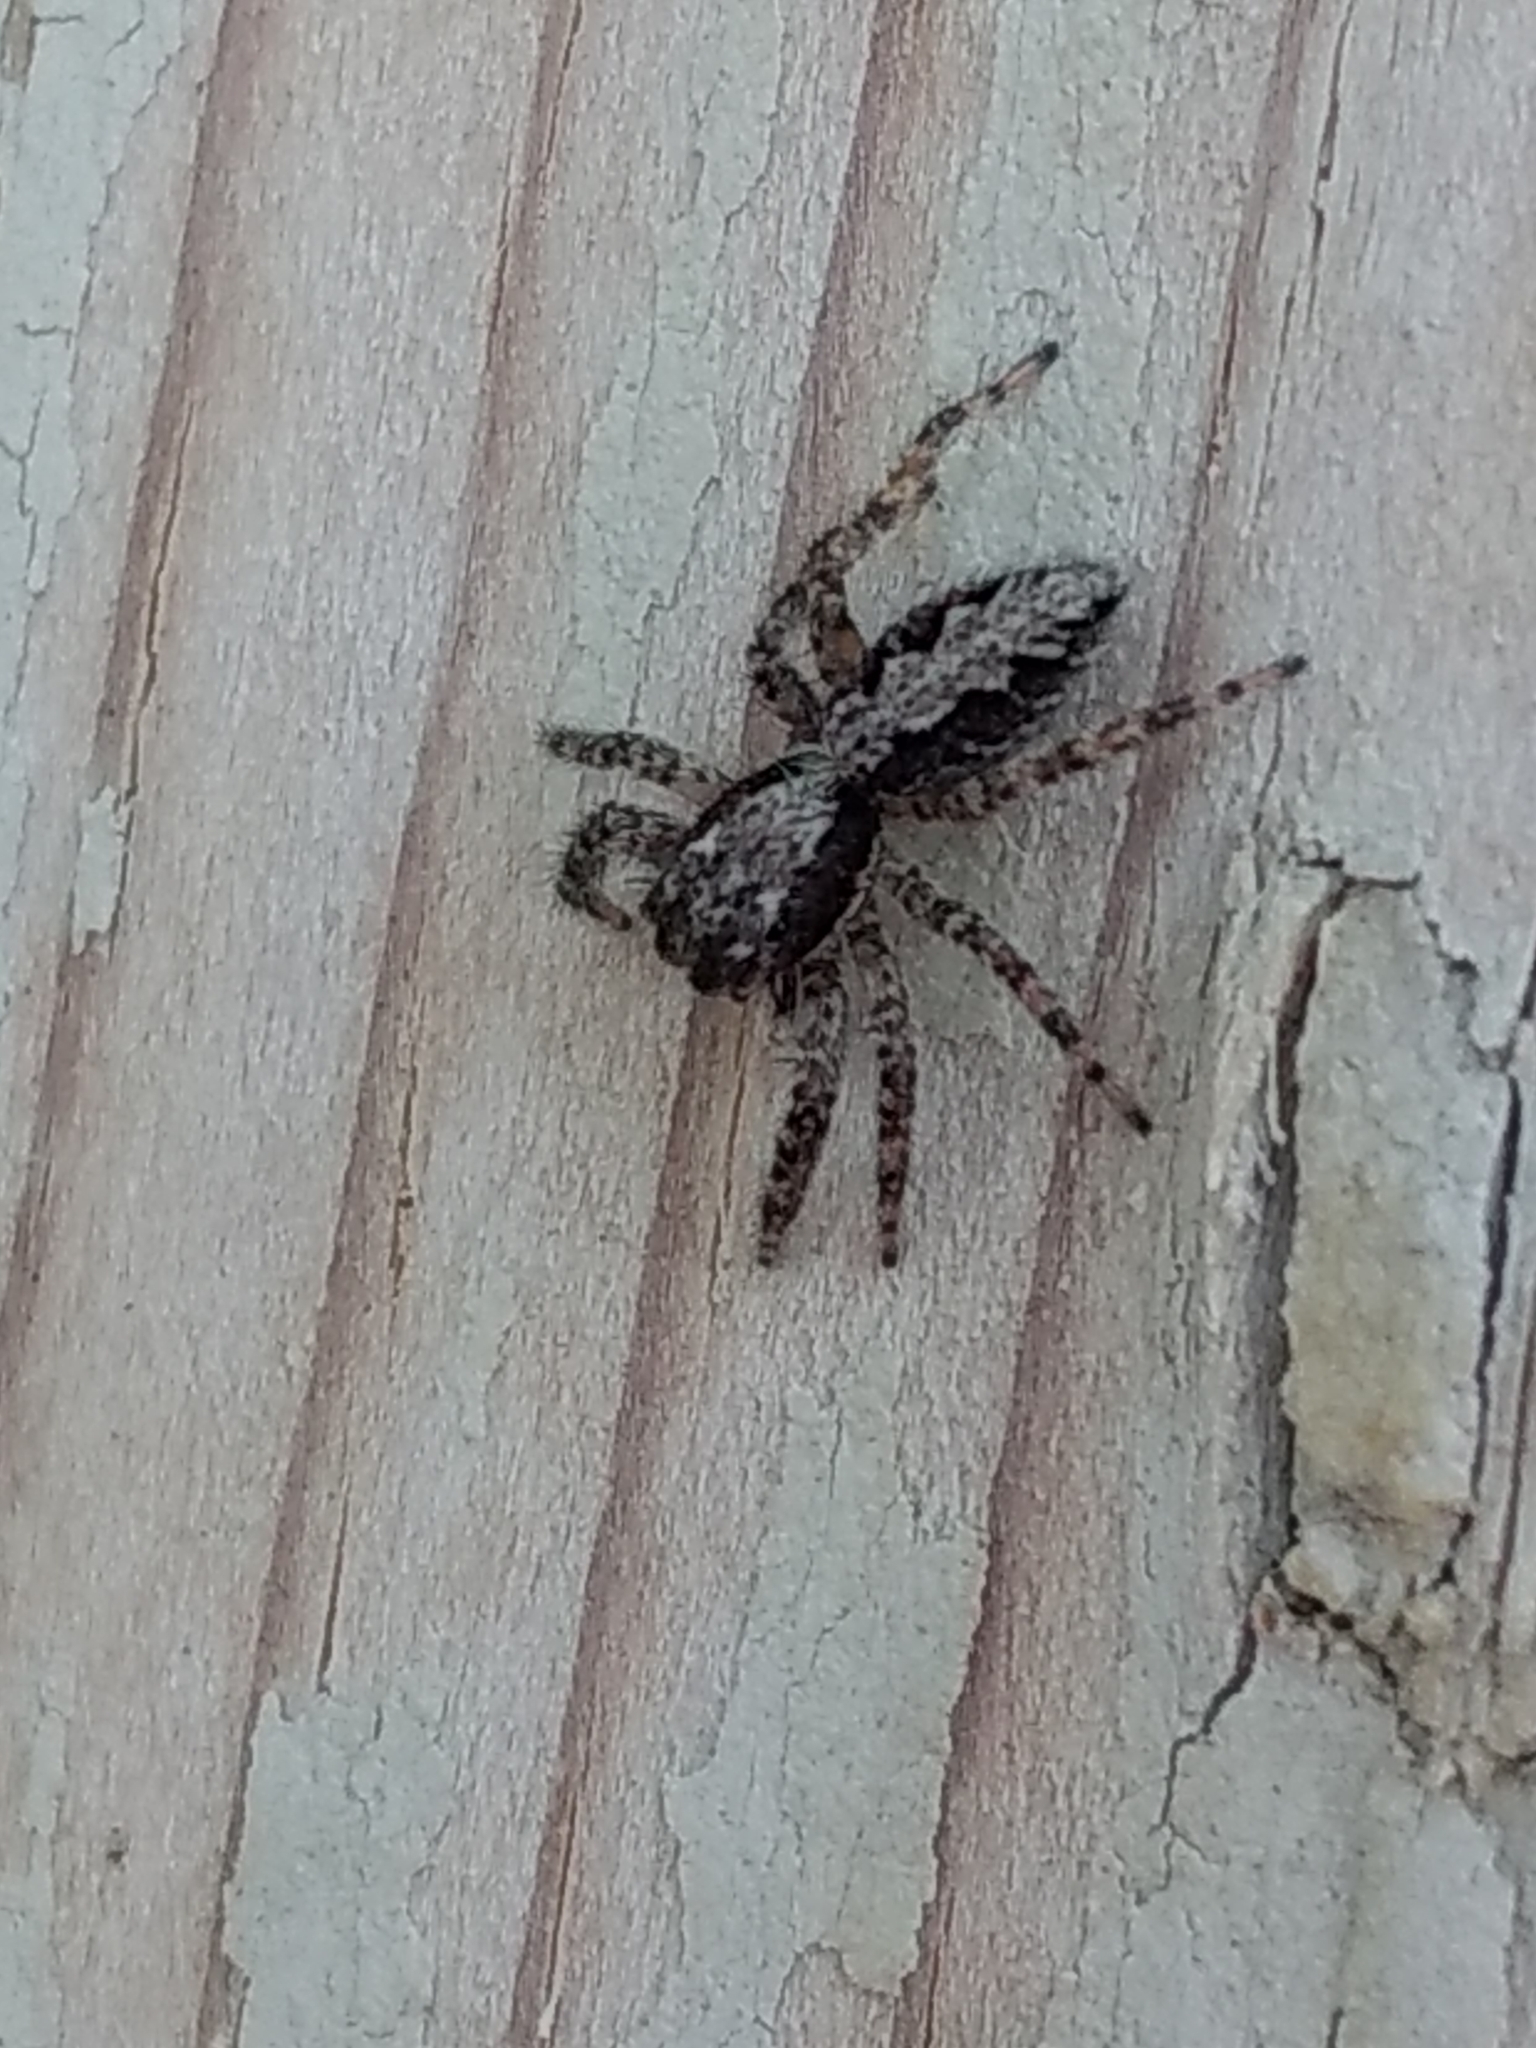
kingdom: Animalia
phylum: Arthropoda
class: Arachnida
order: Araneae
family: Salticidae
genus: Platycryptus
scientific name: Platycryptus californicus
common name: Jumping spiders
